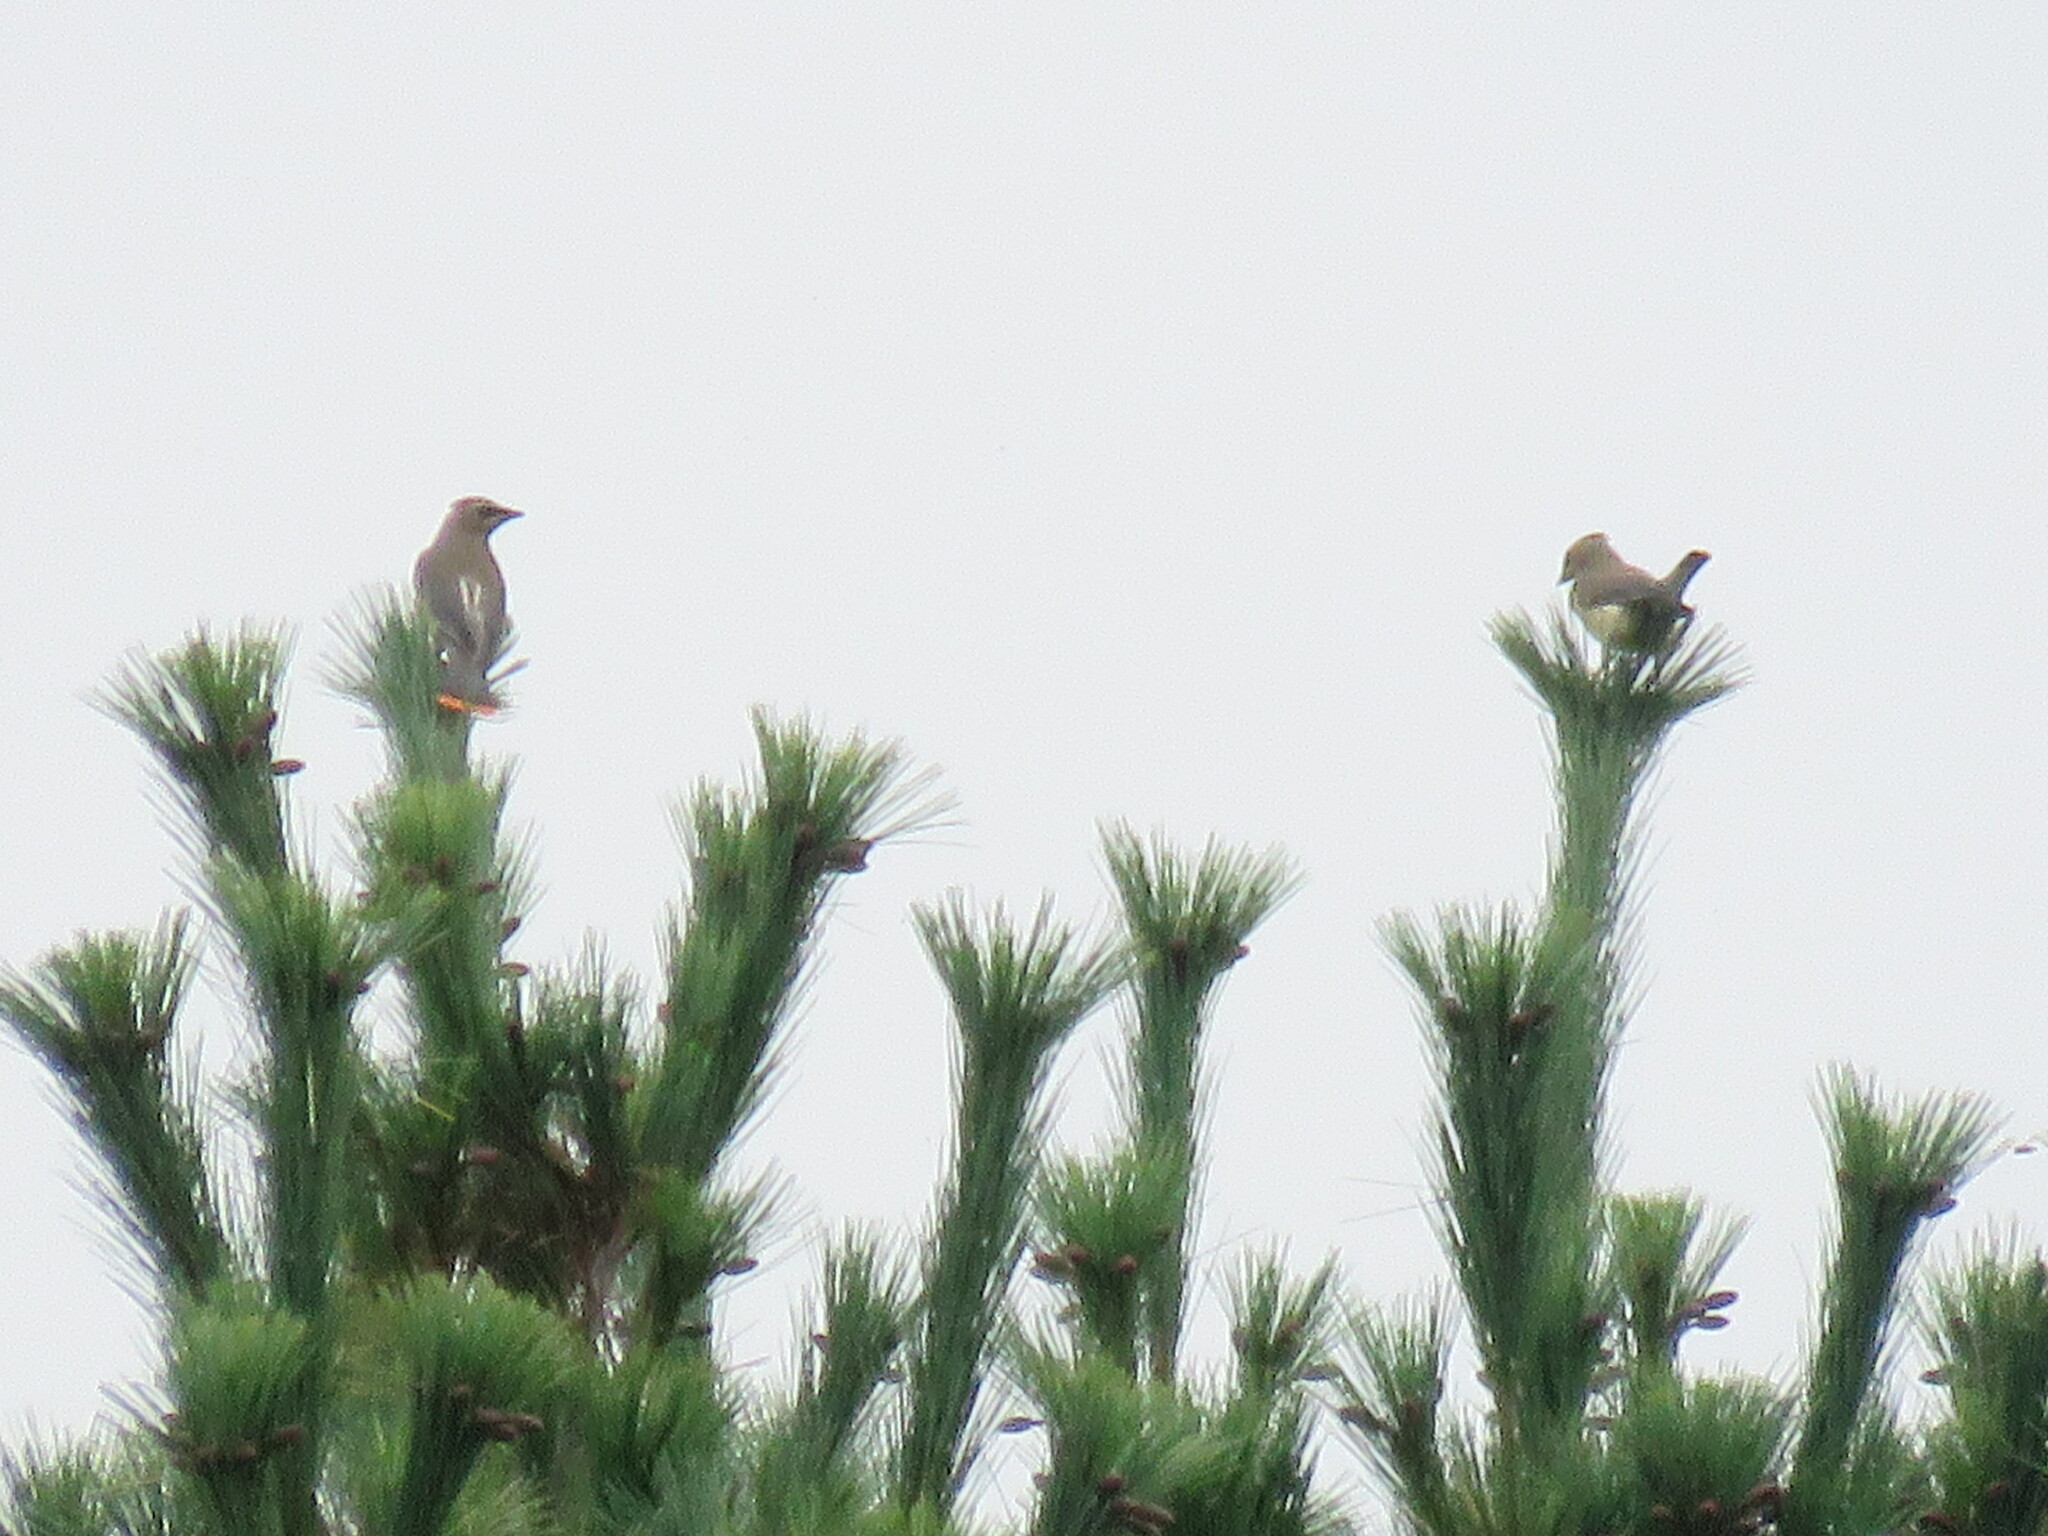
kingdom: Animalia
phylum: Chordata
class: Aves
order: Passeriformes
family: Bombycillidae
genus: Bombycilla
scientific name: Bombycilla cedrorum
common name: Cedar waxwing
